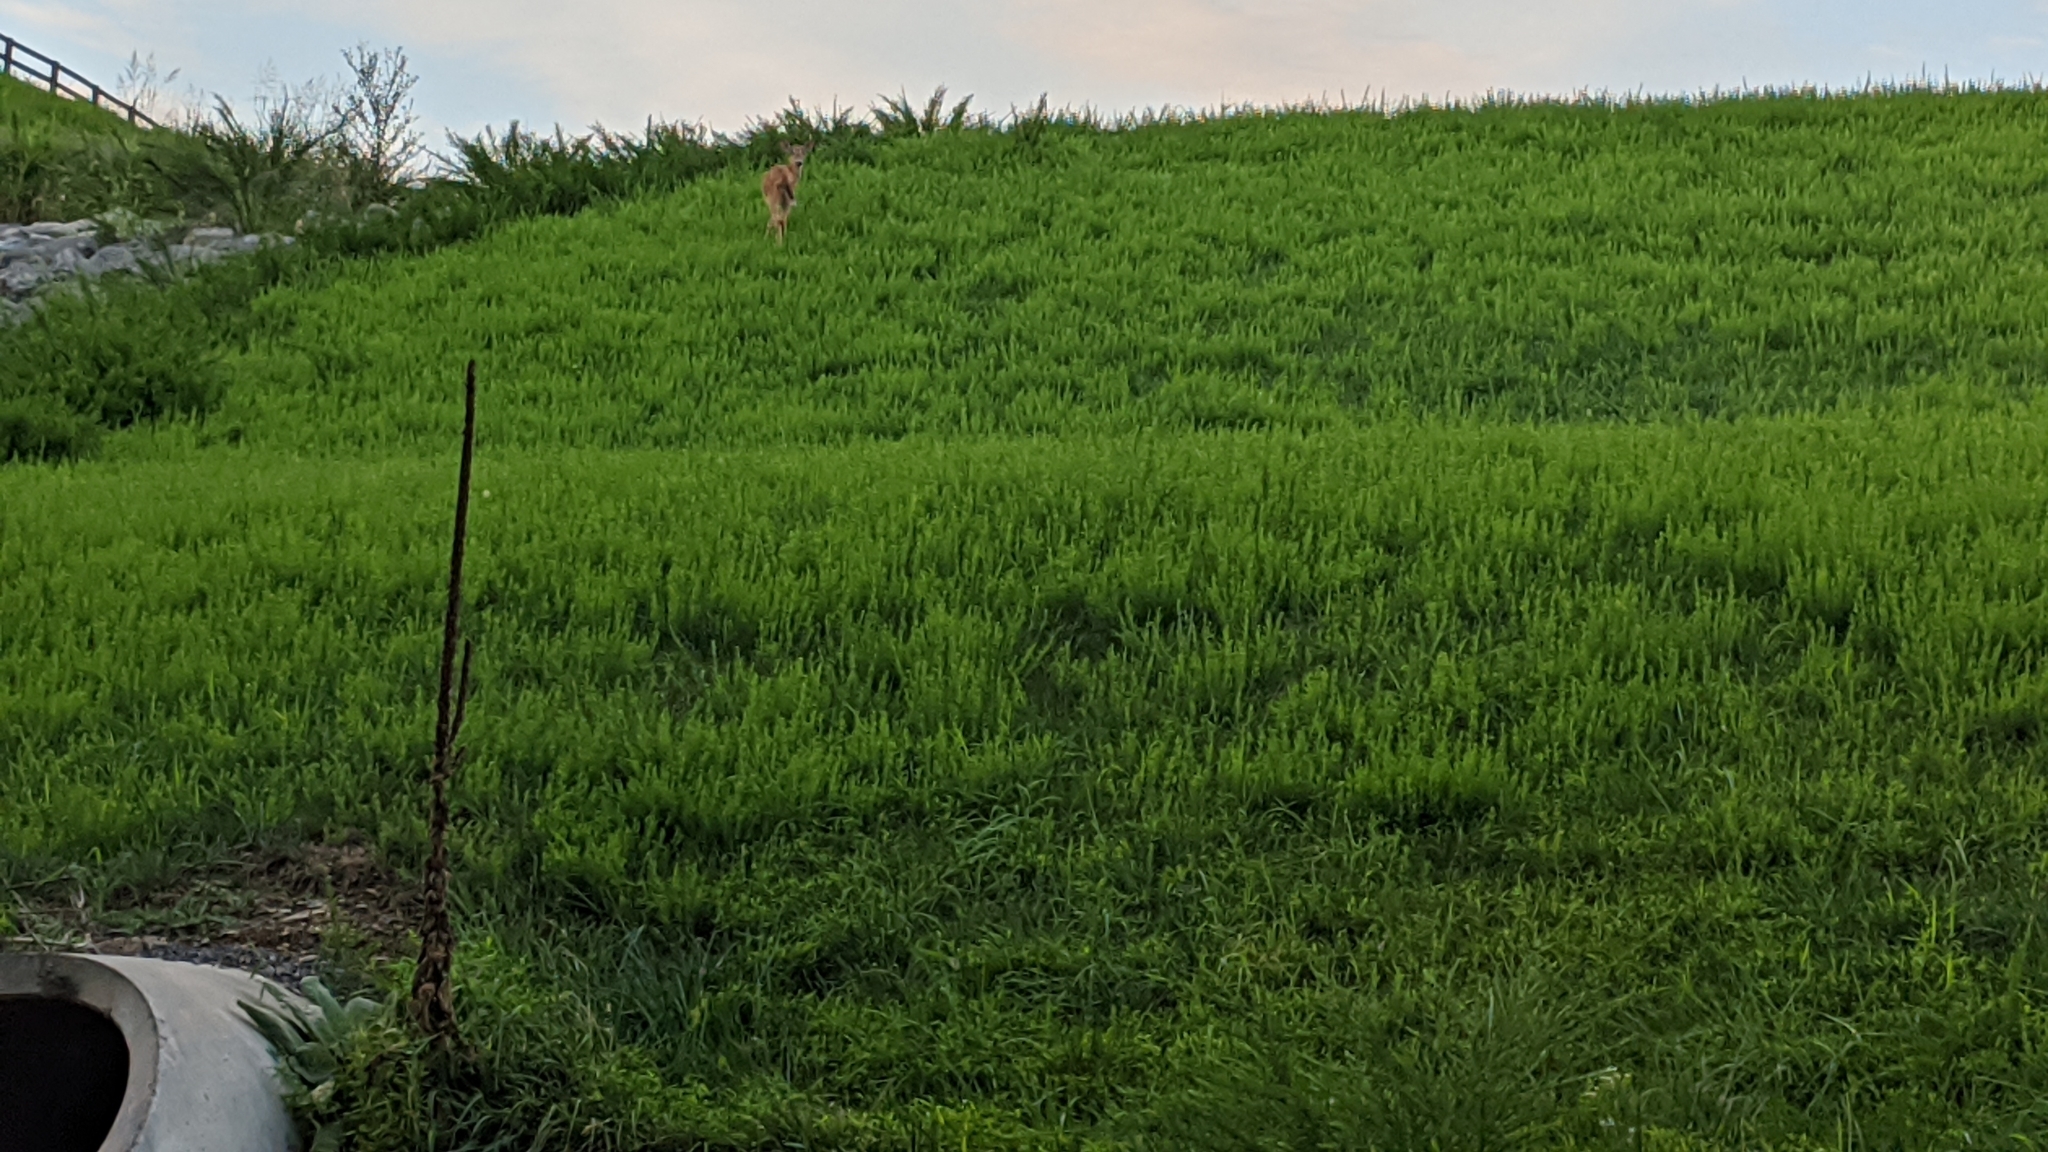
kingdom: Animalia
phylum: Chordata
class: Mammalia
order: Artiodactyla
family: Cervidae
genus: Odocoileus
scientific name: Odocoileus virginianus
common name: White-tailed deer
